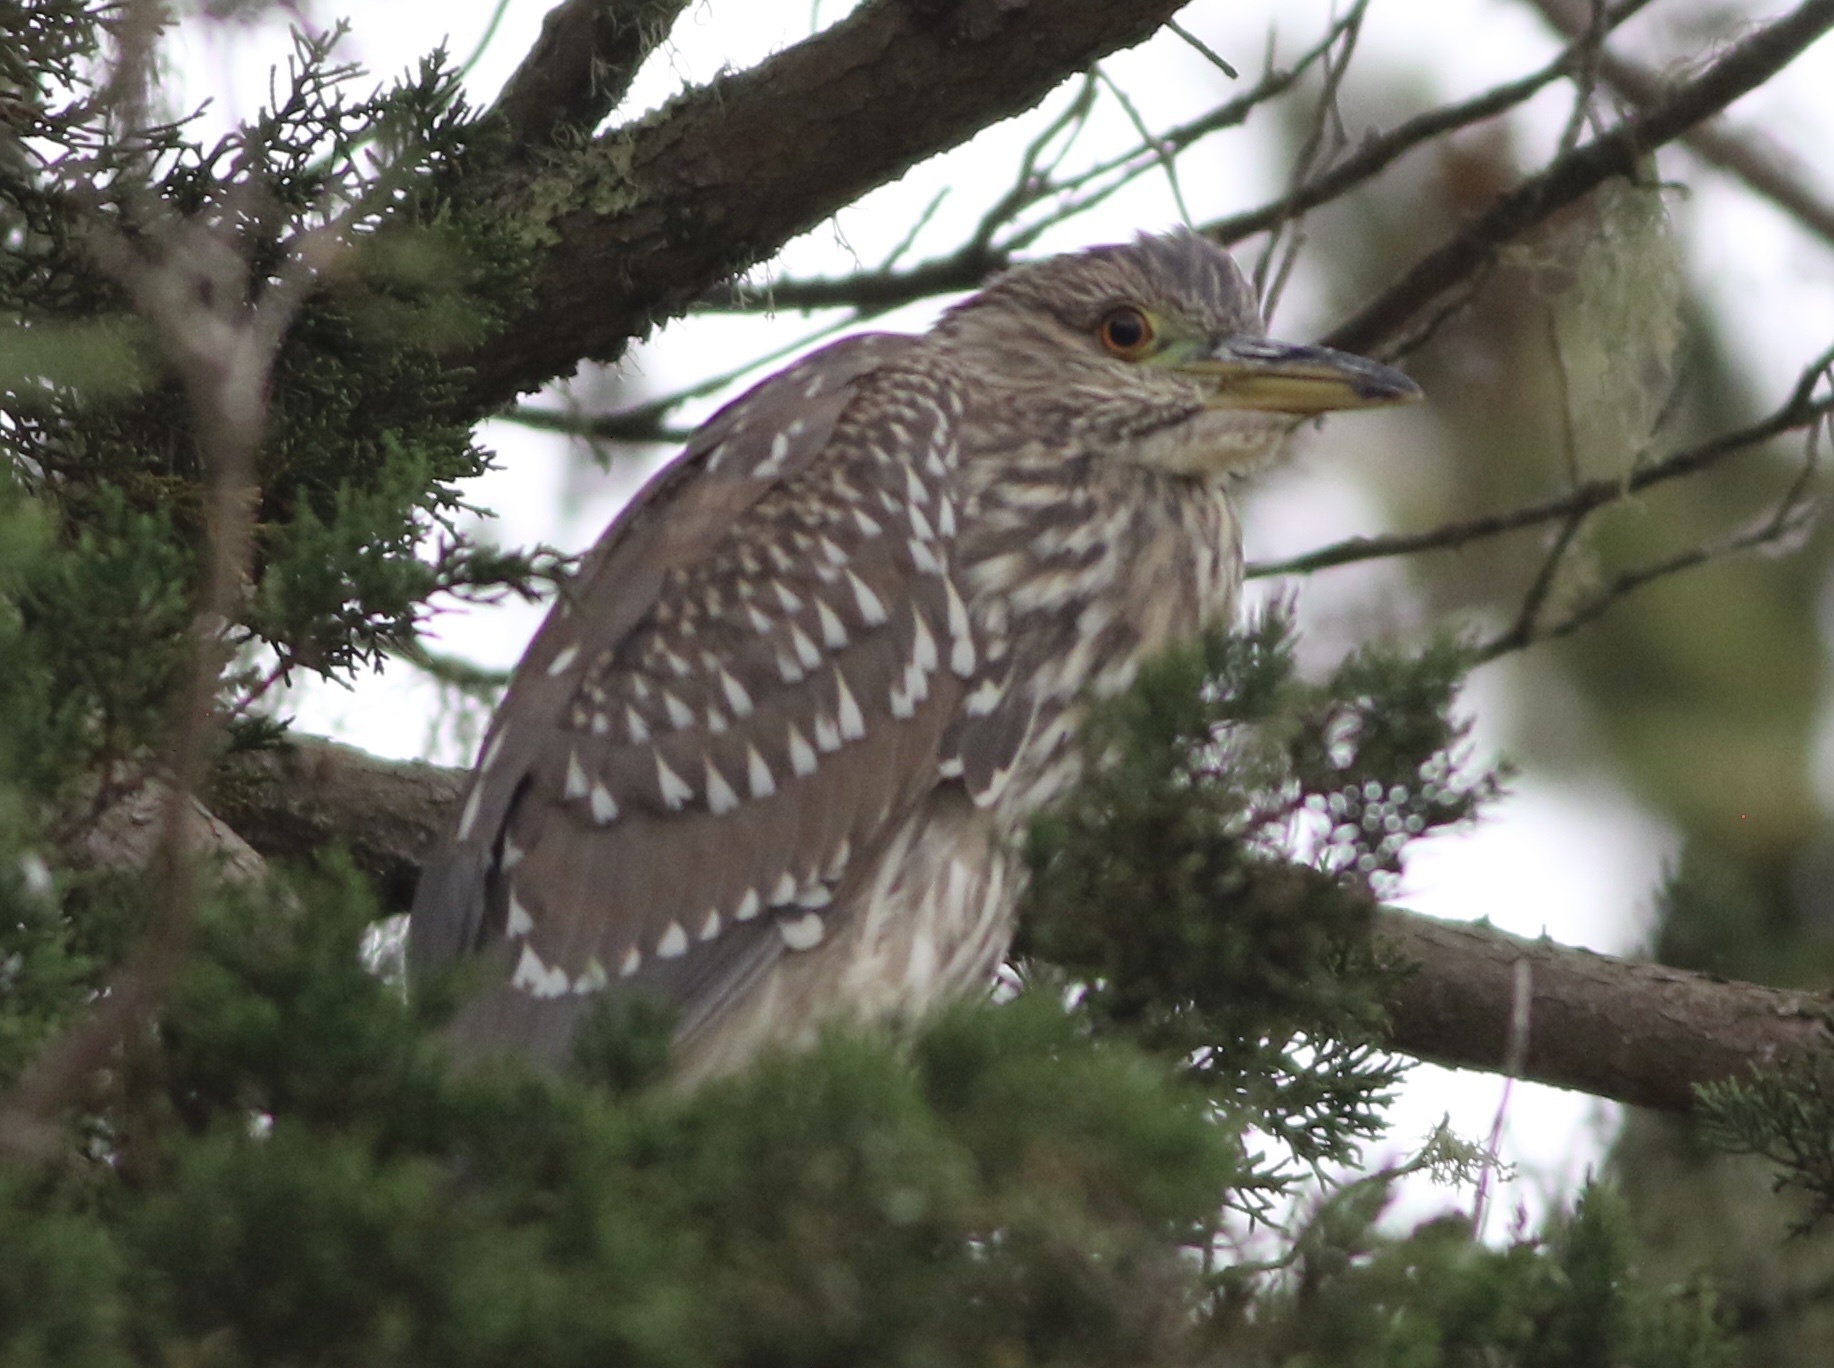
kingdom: Animalia
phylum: Chordata
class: Aves
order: Pelecaniformes
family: Ardeidae
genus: Nycticorax
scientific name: Nycticorax nycticorax
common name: Black-crowned night heron
